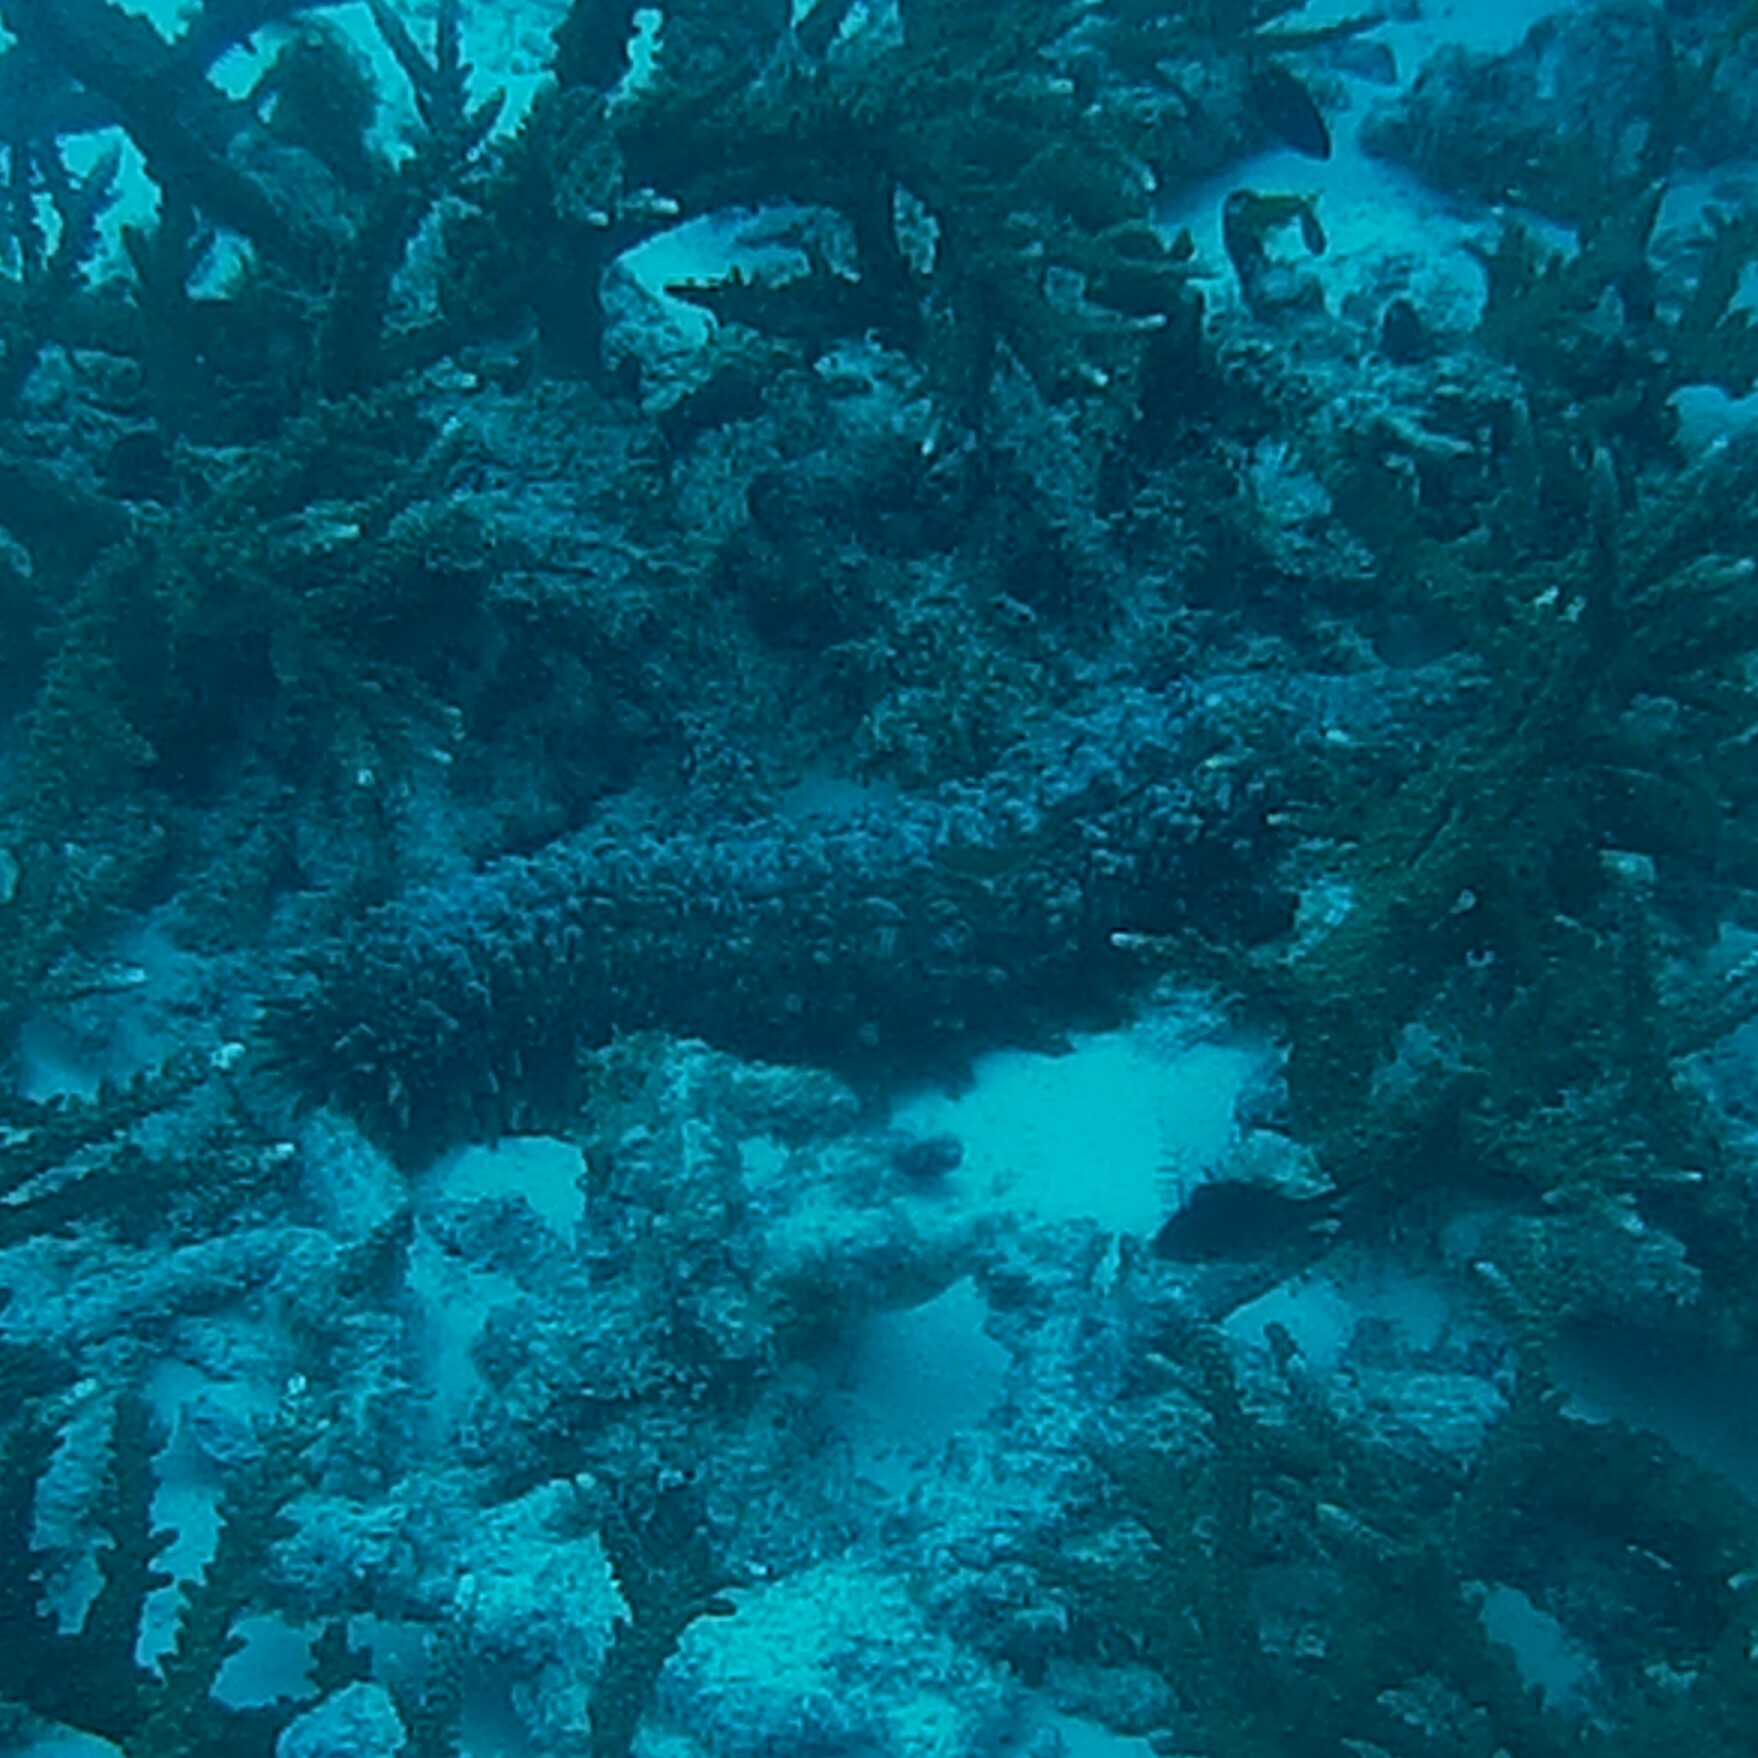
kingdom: Animalia
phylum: Echinodermata
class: Holothuroidea
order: Synallactida
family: Stichopodidae
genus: Thelenota
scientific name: Thelenota ananas
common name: Prickly redfish
